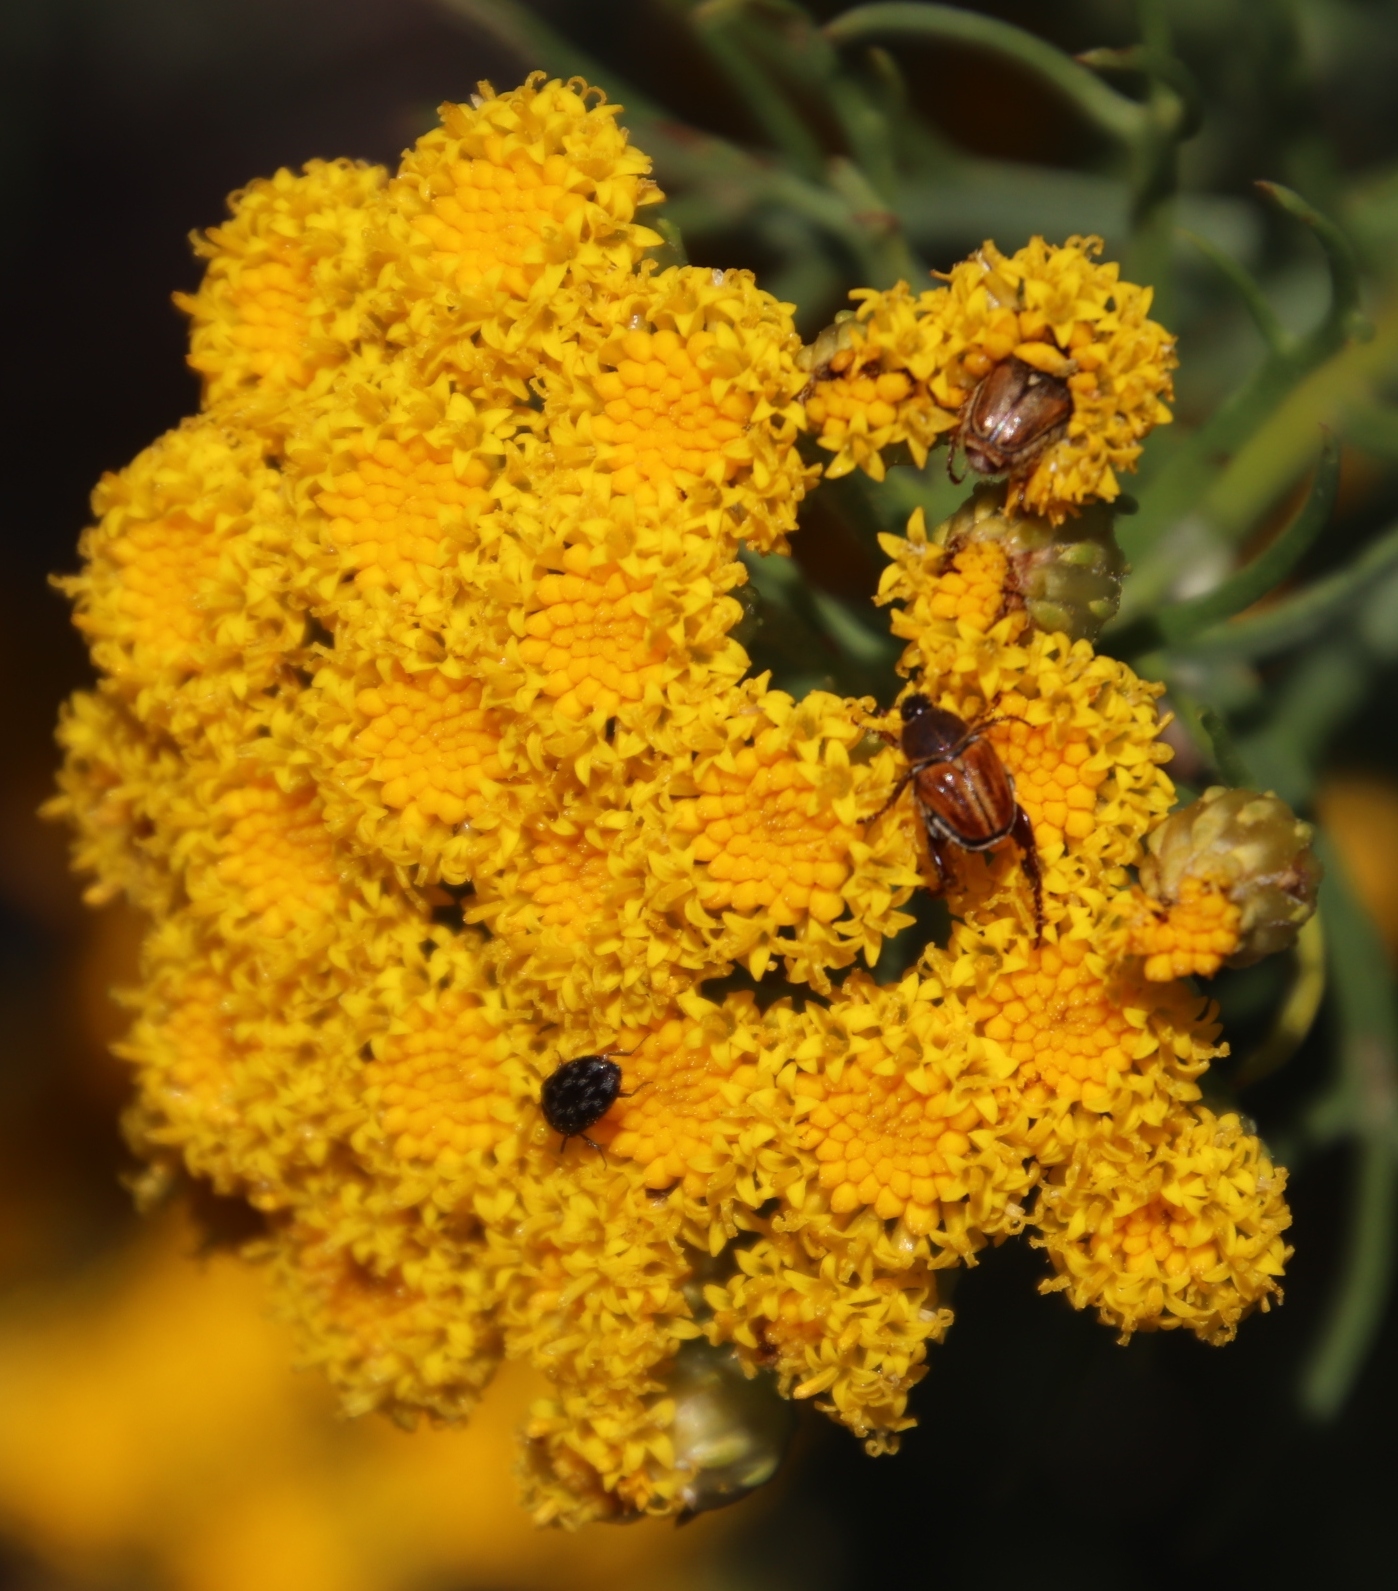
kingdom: Plantae
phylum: Tracheophyta
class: Magnoliopsida
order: Asterales
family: Asteraceae
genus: Athanasia
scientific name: Athanasia crithmifolia
